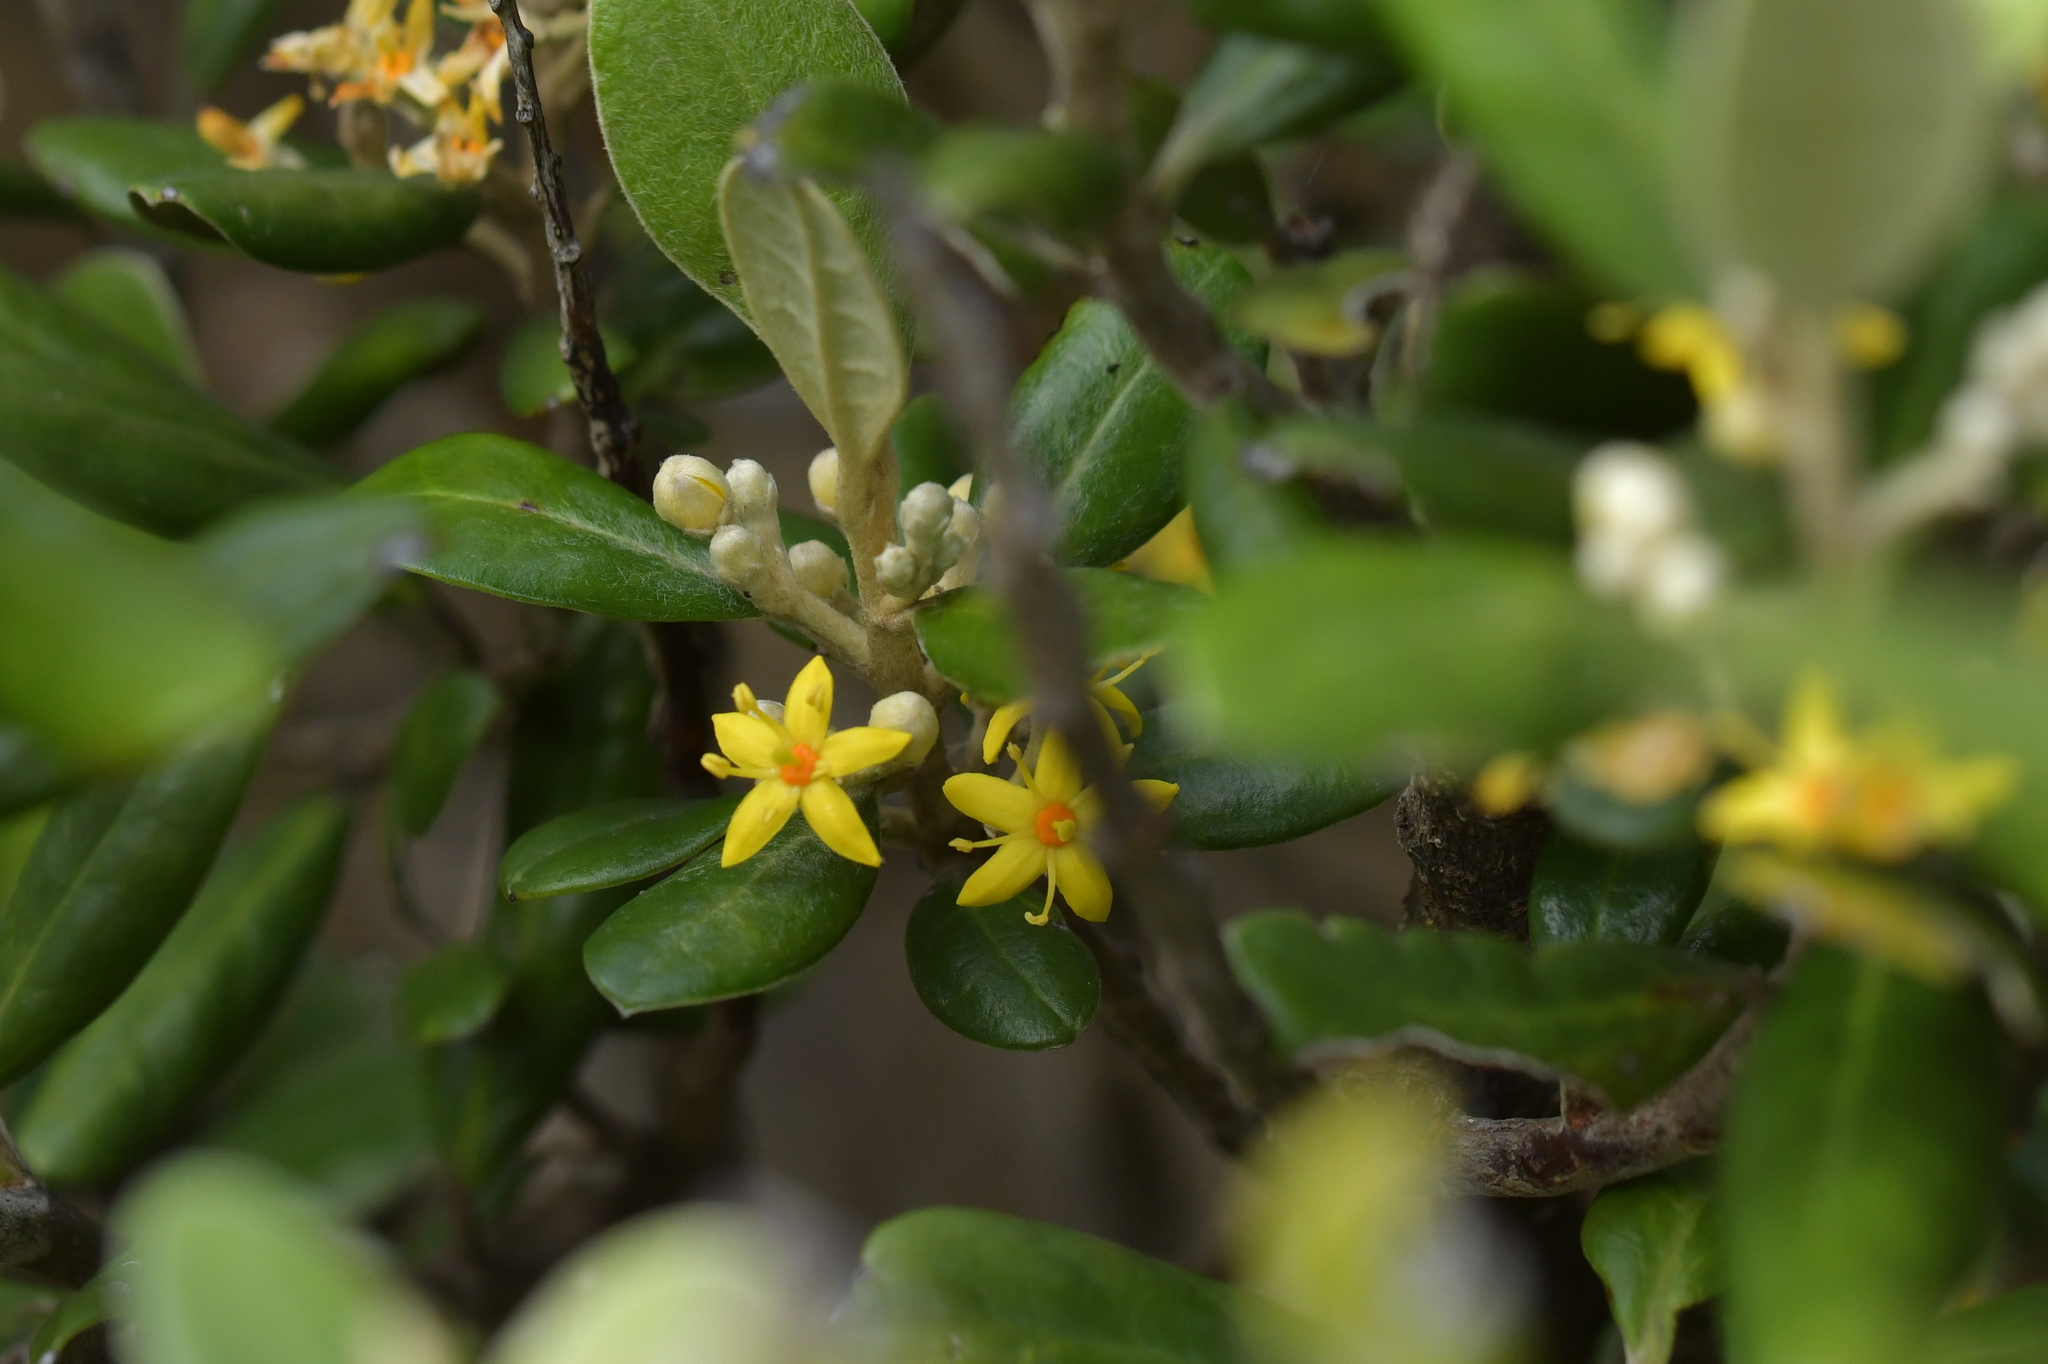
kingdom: Plantae
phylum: Tracheophyta
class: Magnoliopsida
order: Asterales
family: Argophyllaceae
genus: Corokia
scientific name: Corokia macrocarpa
